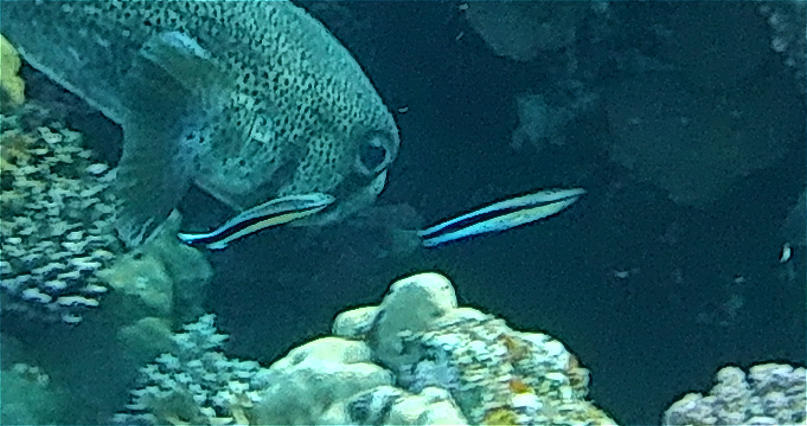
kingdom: Animalia
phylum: Chordata
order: Perciformes
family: Labridae
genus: Labroides
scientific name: Labroides dimidiatus
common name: Blue diesel wrasse
